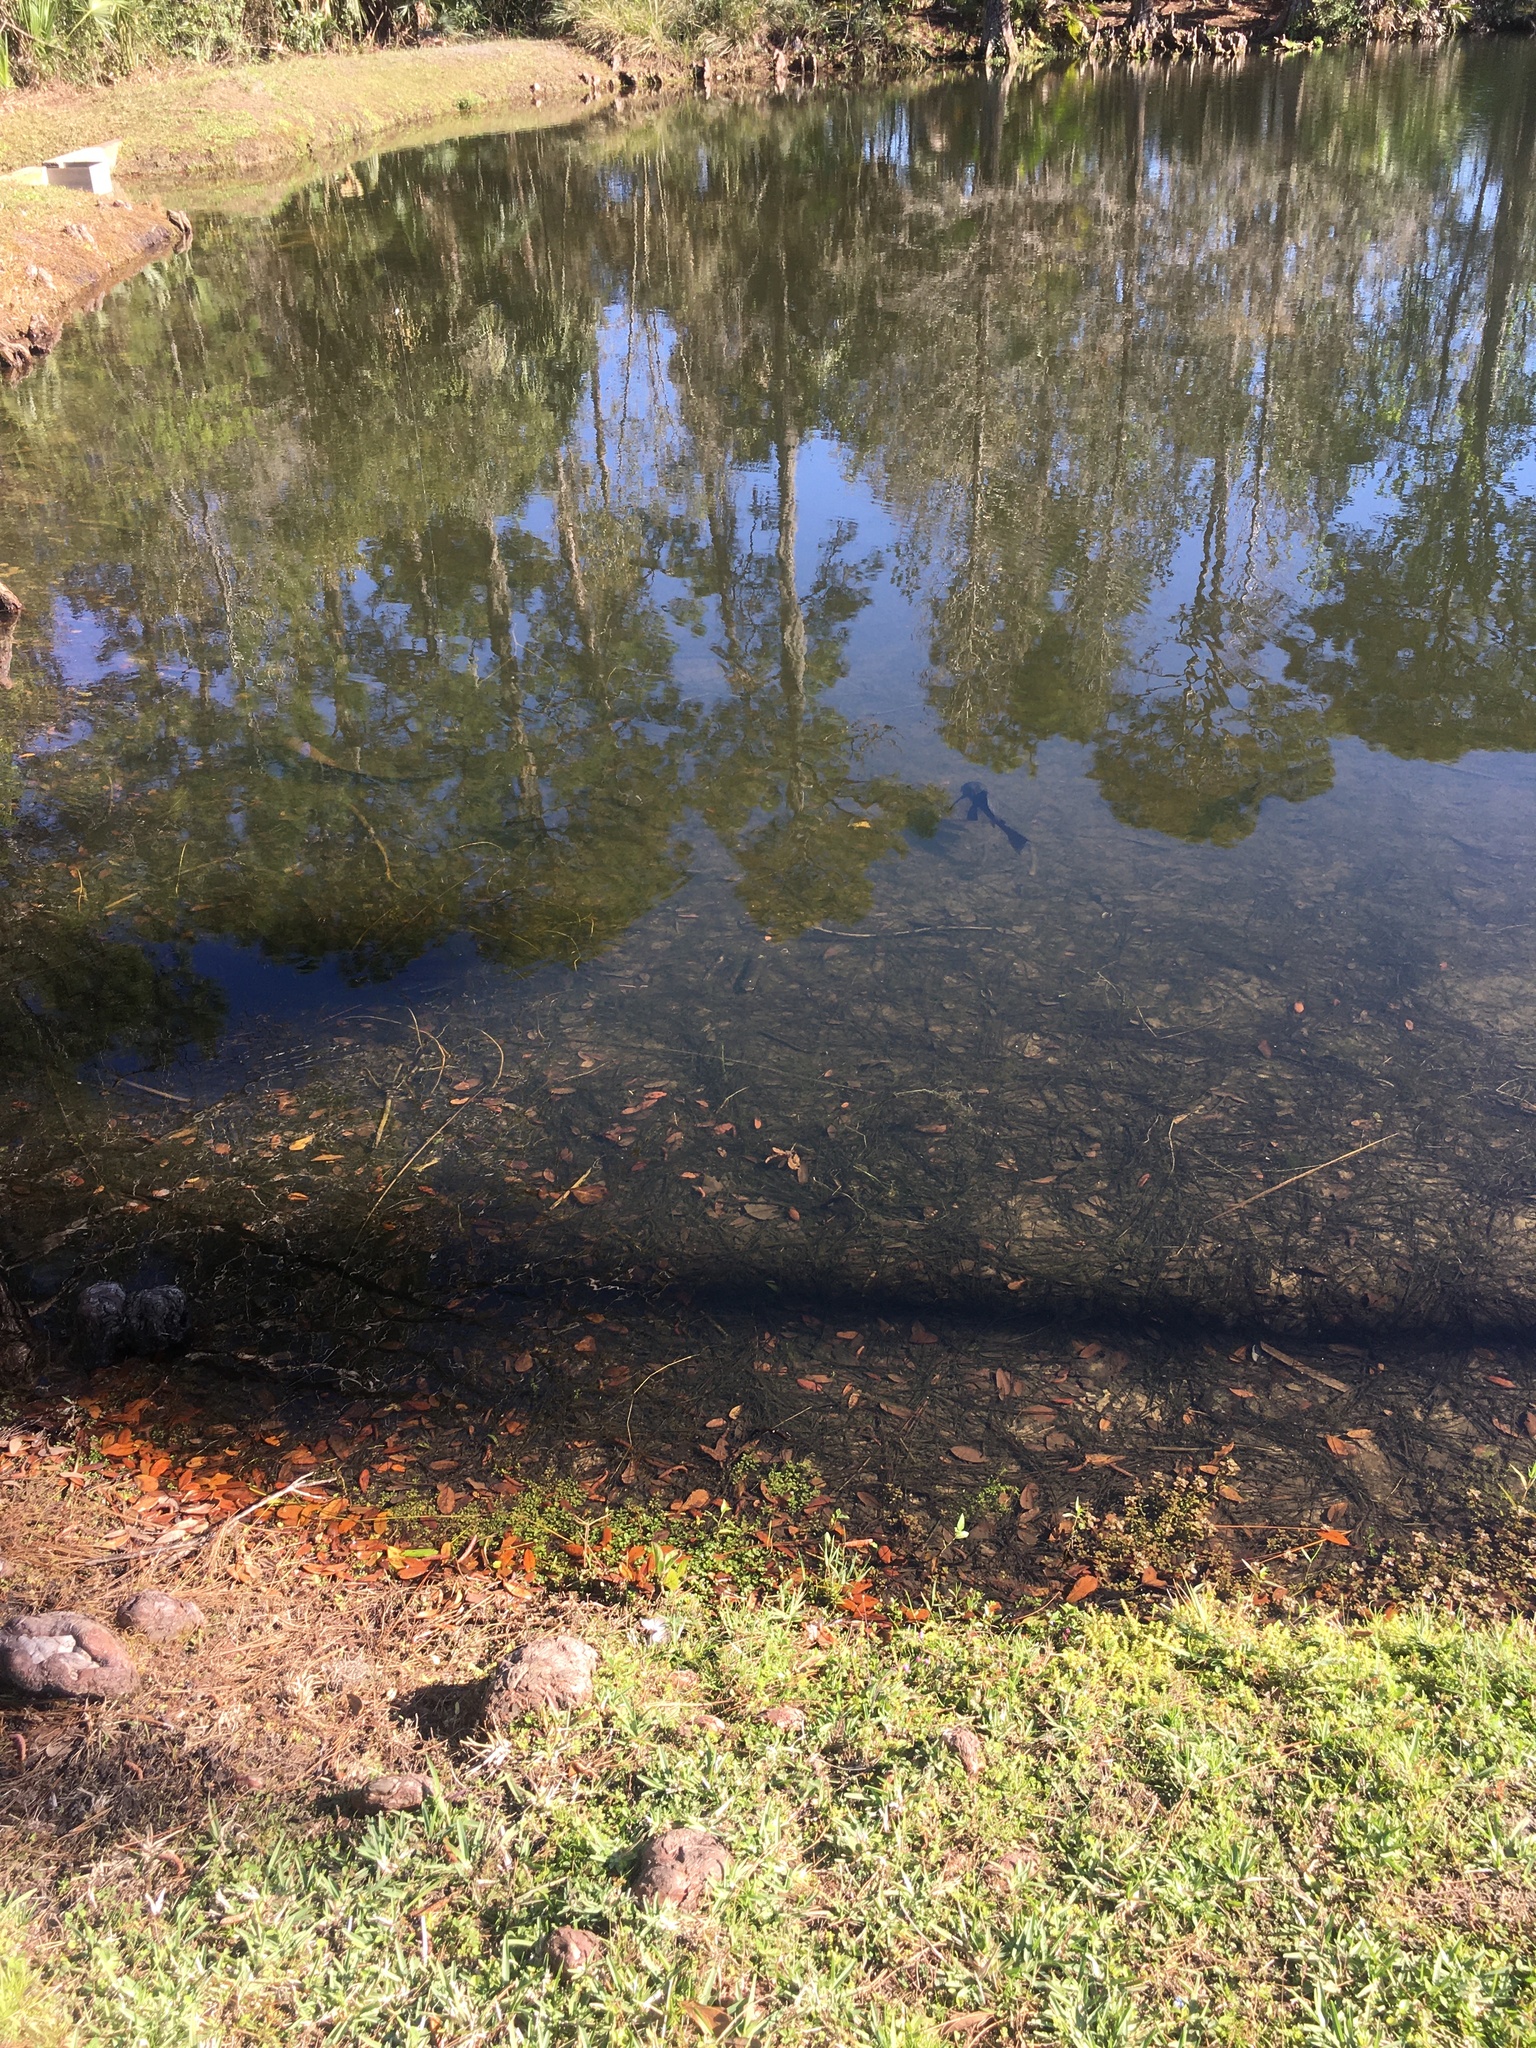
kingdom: Animalia
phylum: Chordata
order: Siluriformes
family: Loricariidae
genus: Pterygoplichthys
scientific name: Pterygoplichthys
